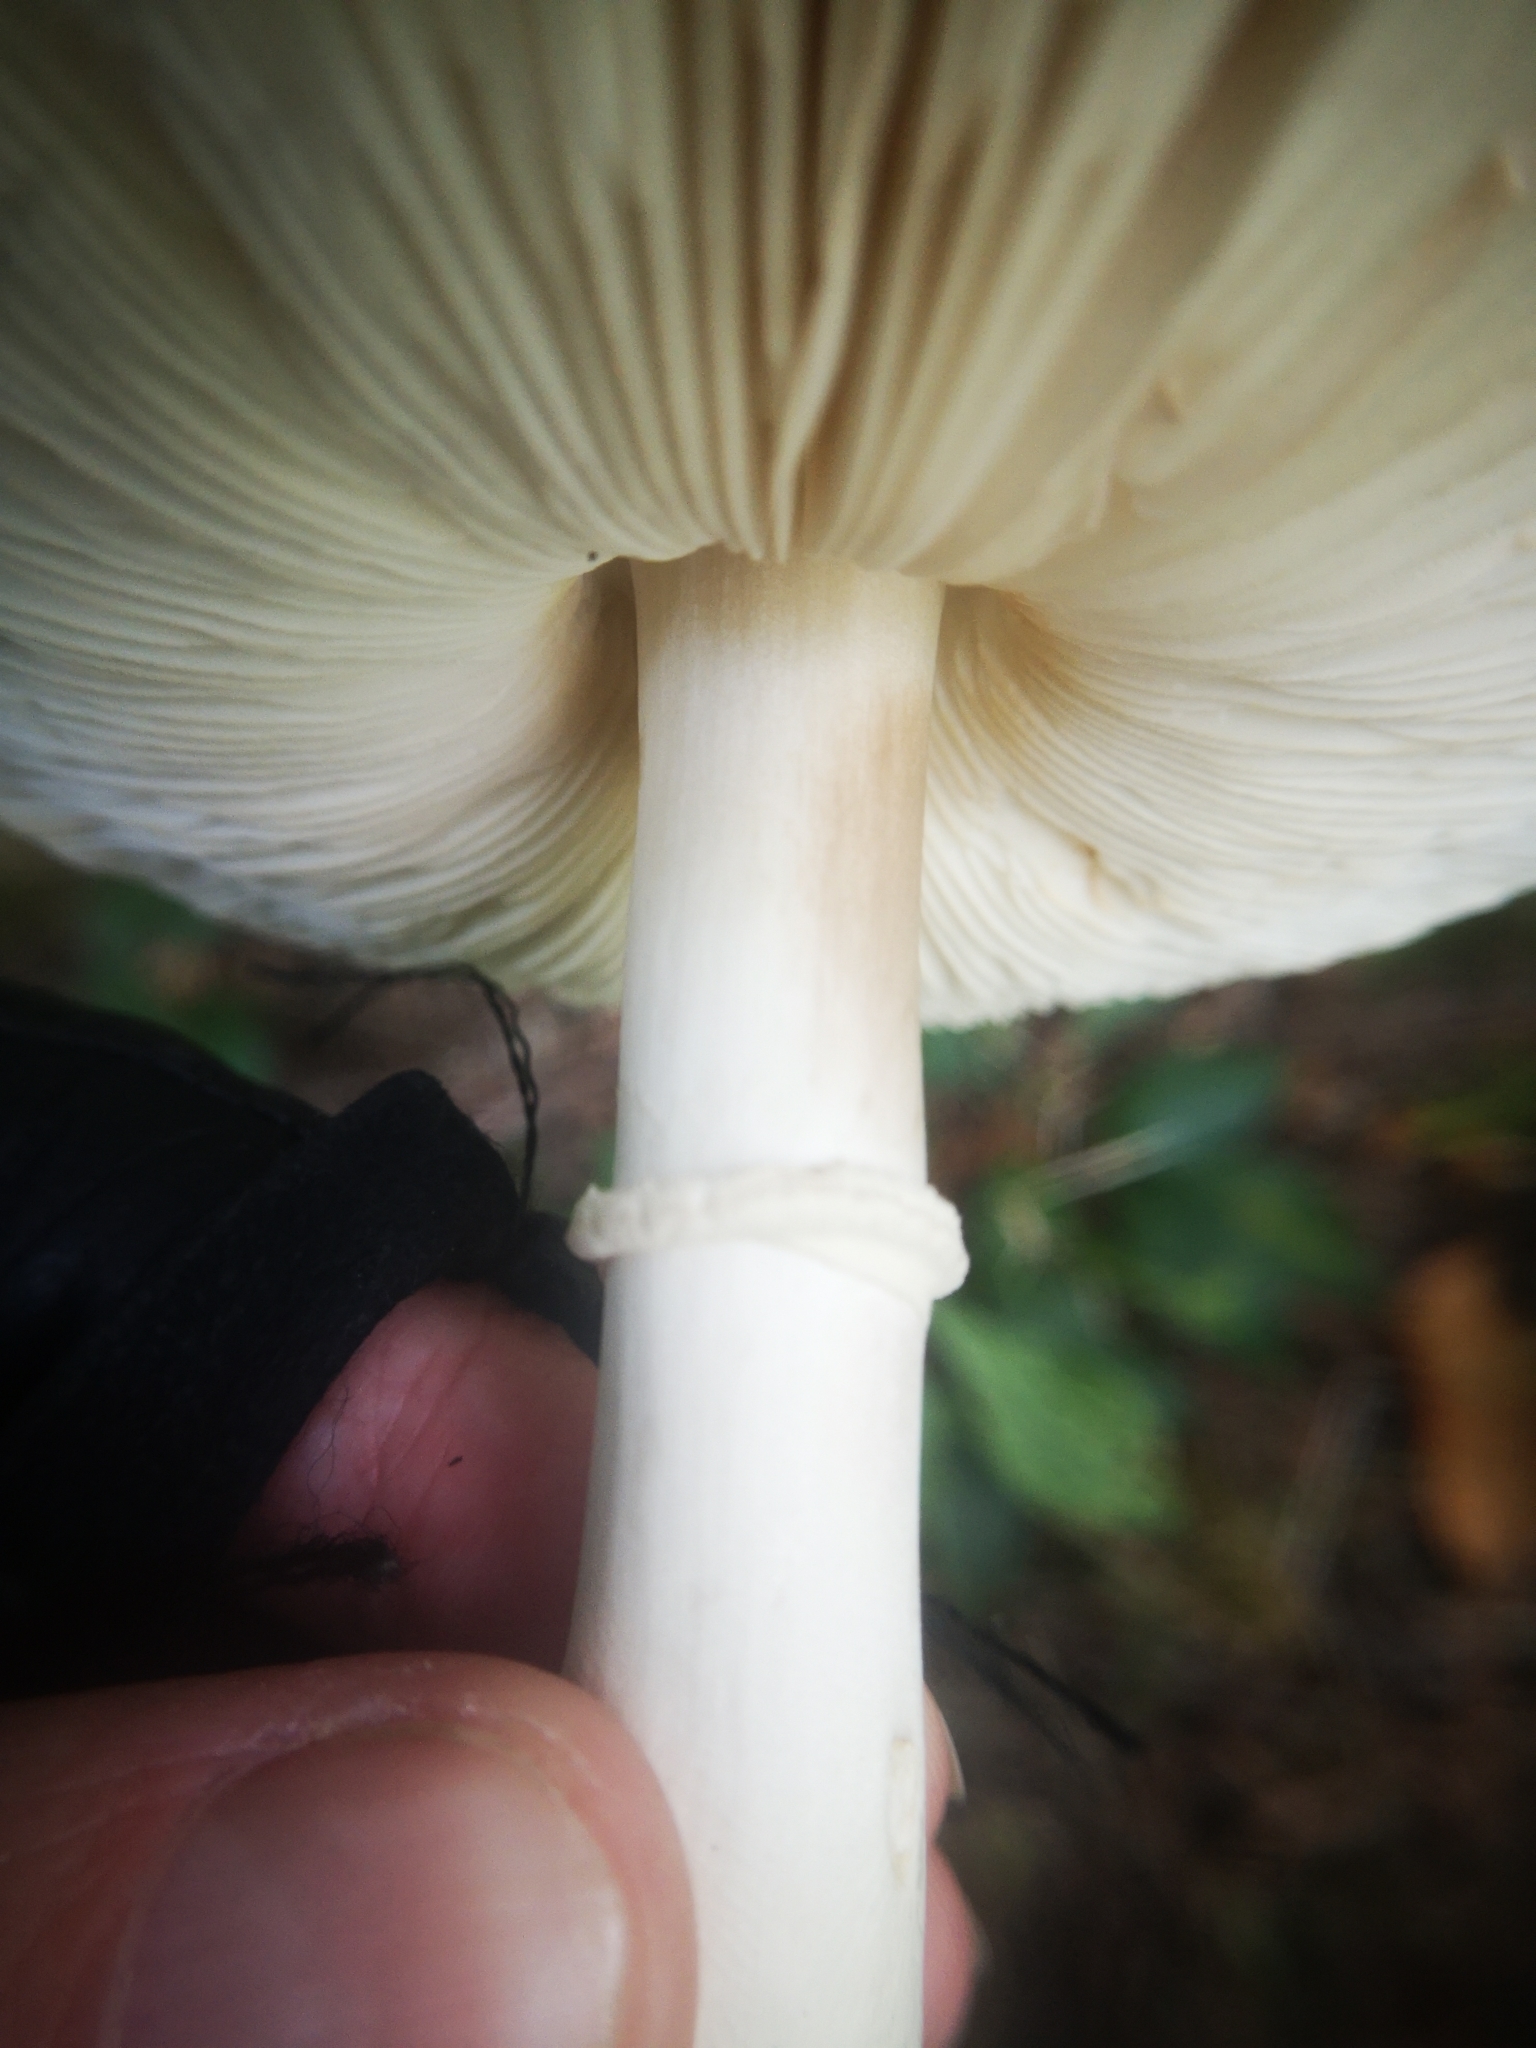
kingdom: Fungi
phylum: Basidiomycota
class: Agaricomycetes
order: Agaricales
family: Agaricaceae
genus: Leucoagaricus
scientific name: Leucoagaricus leucothites
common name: White dapperling
